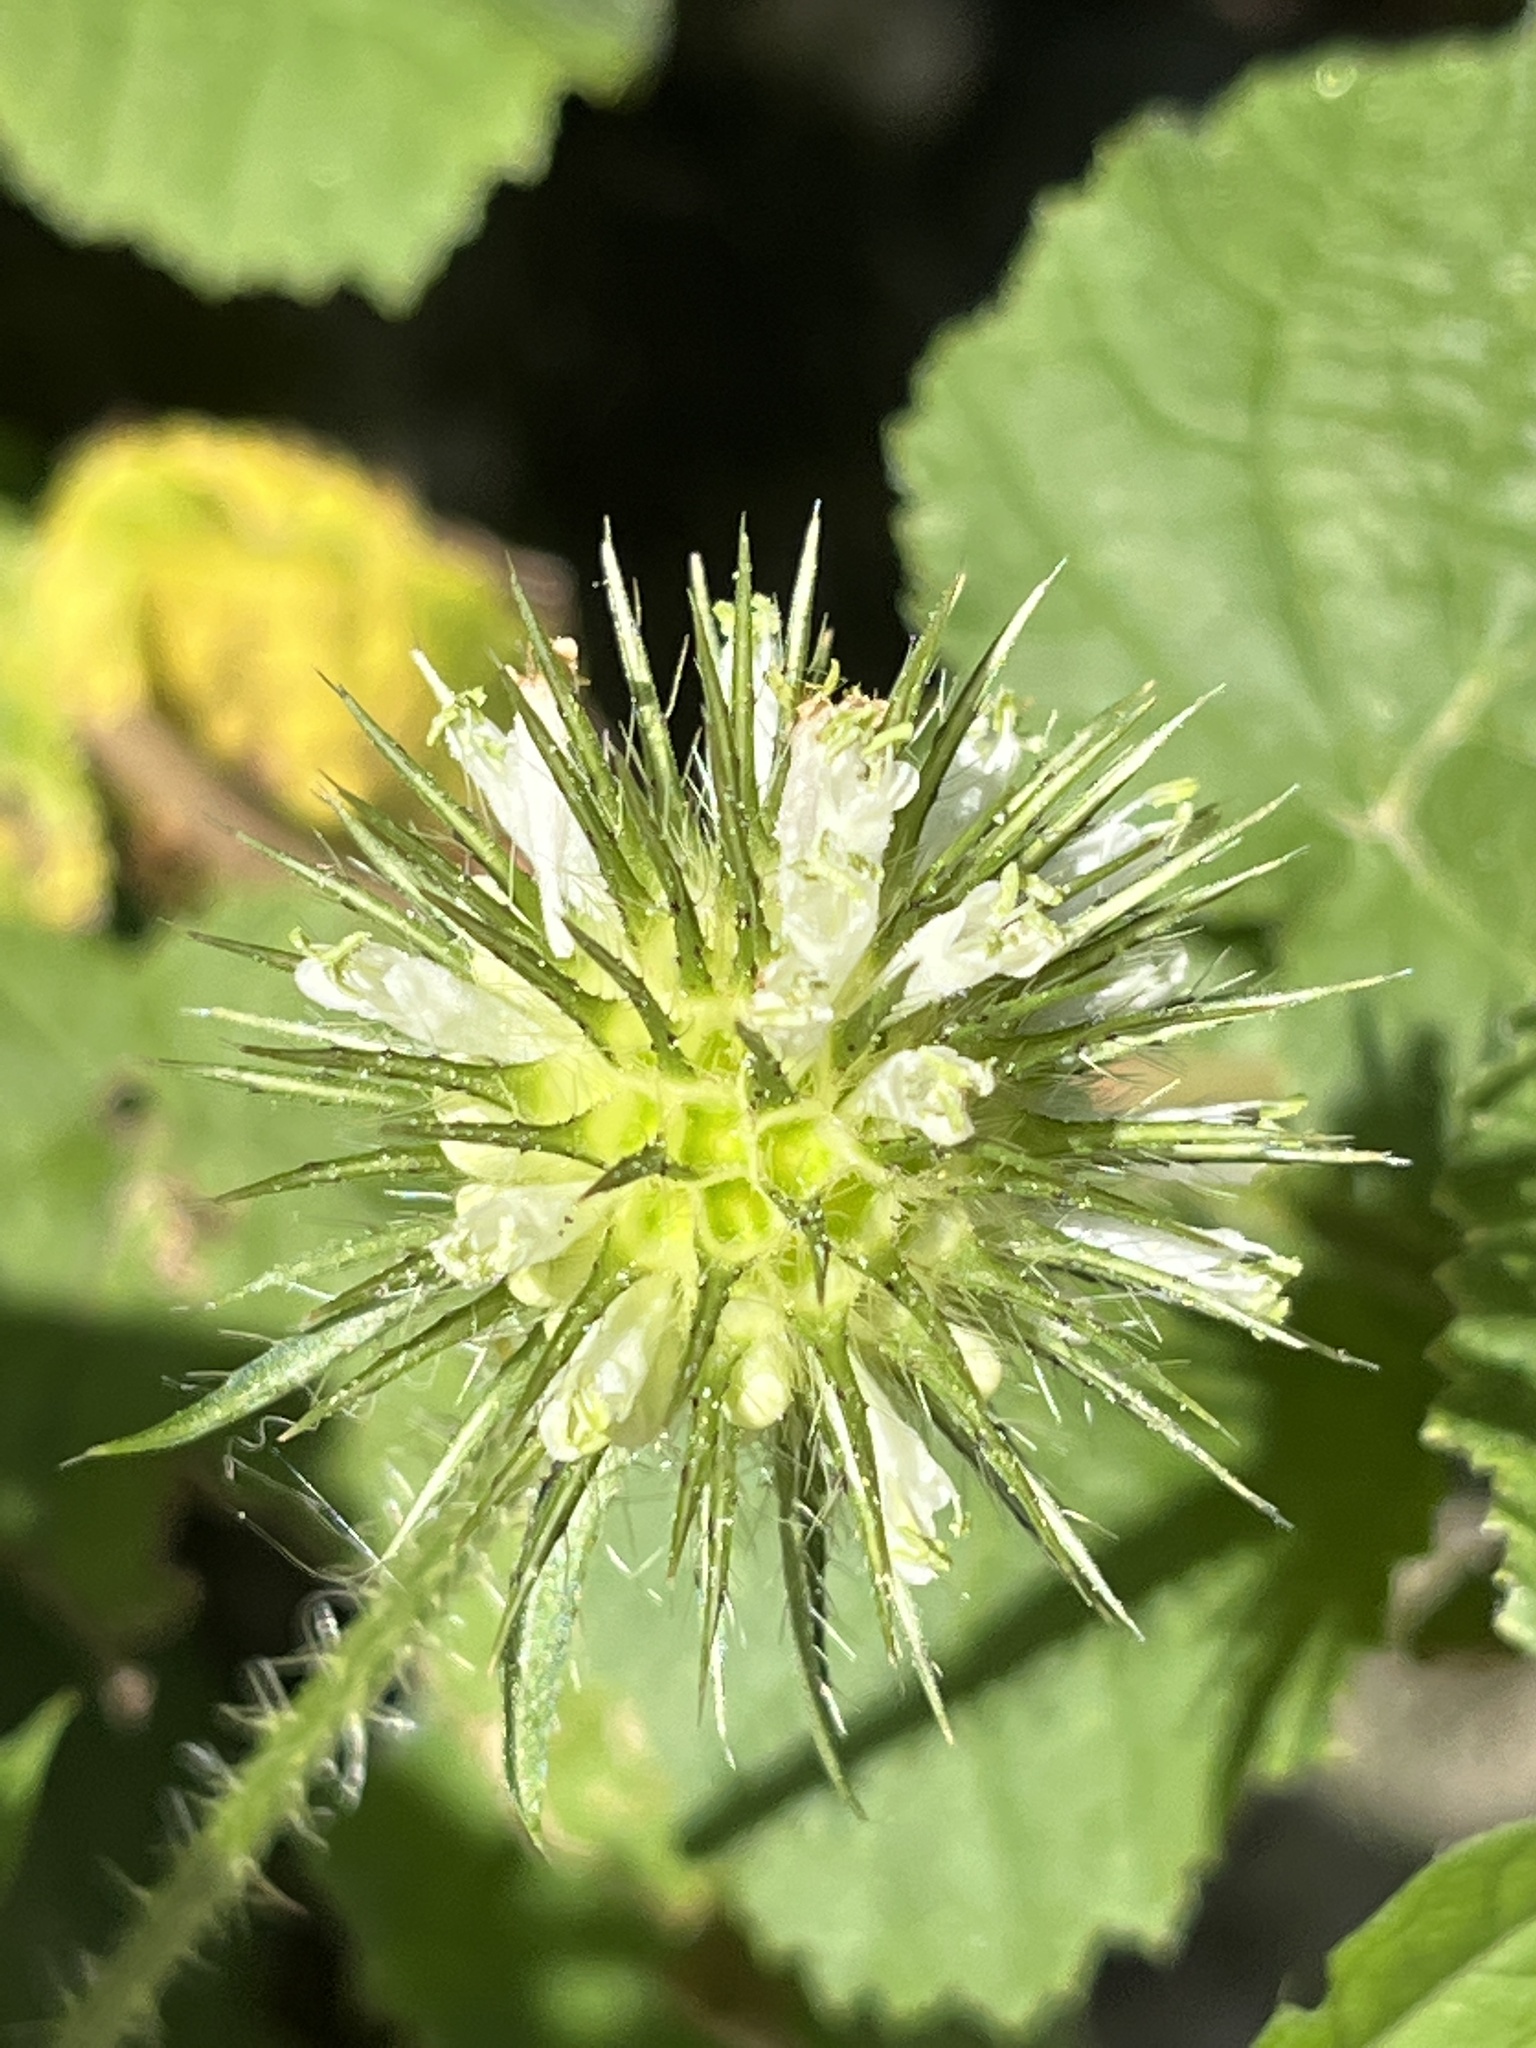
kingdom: Plantae
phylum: Tracheophyta
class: Magnoliopsida
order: Dipsacales
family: Caprifoliaceae
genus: Dipsacus
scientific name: Dipsacus strigosus
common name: Yellow-flowered teasel
